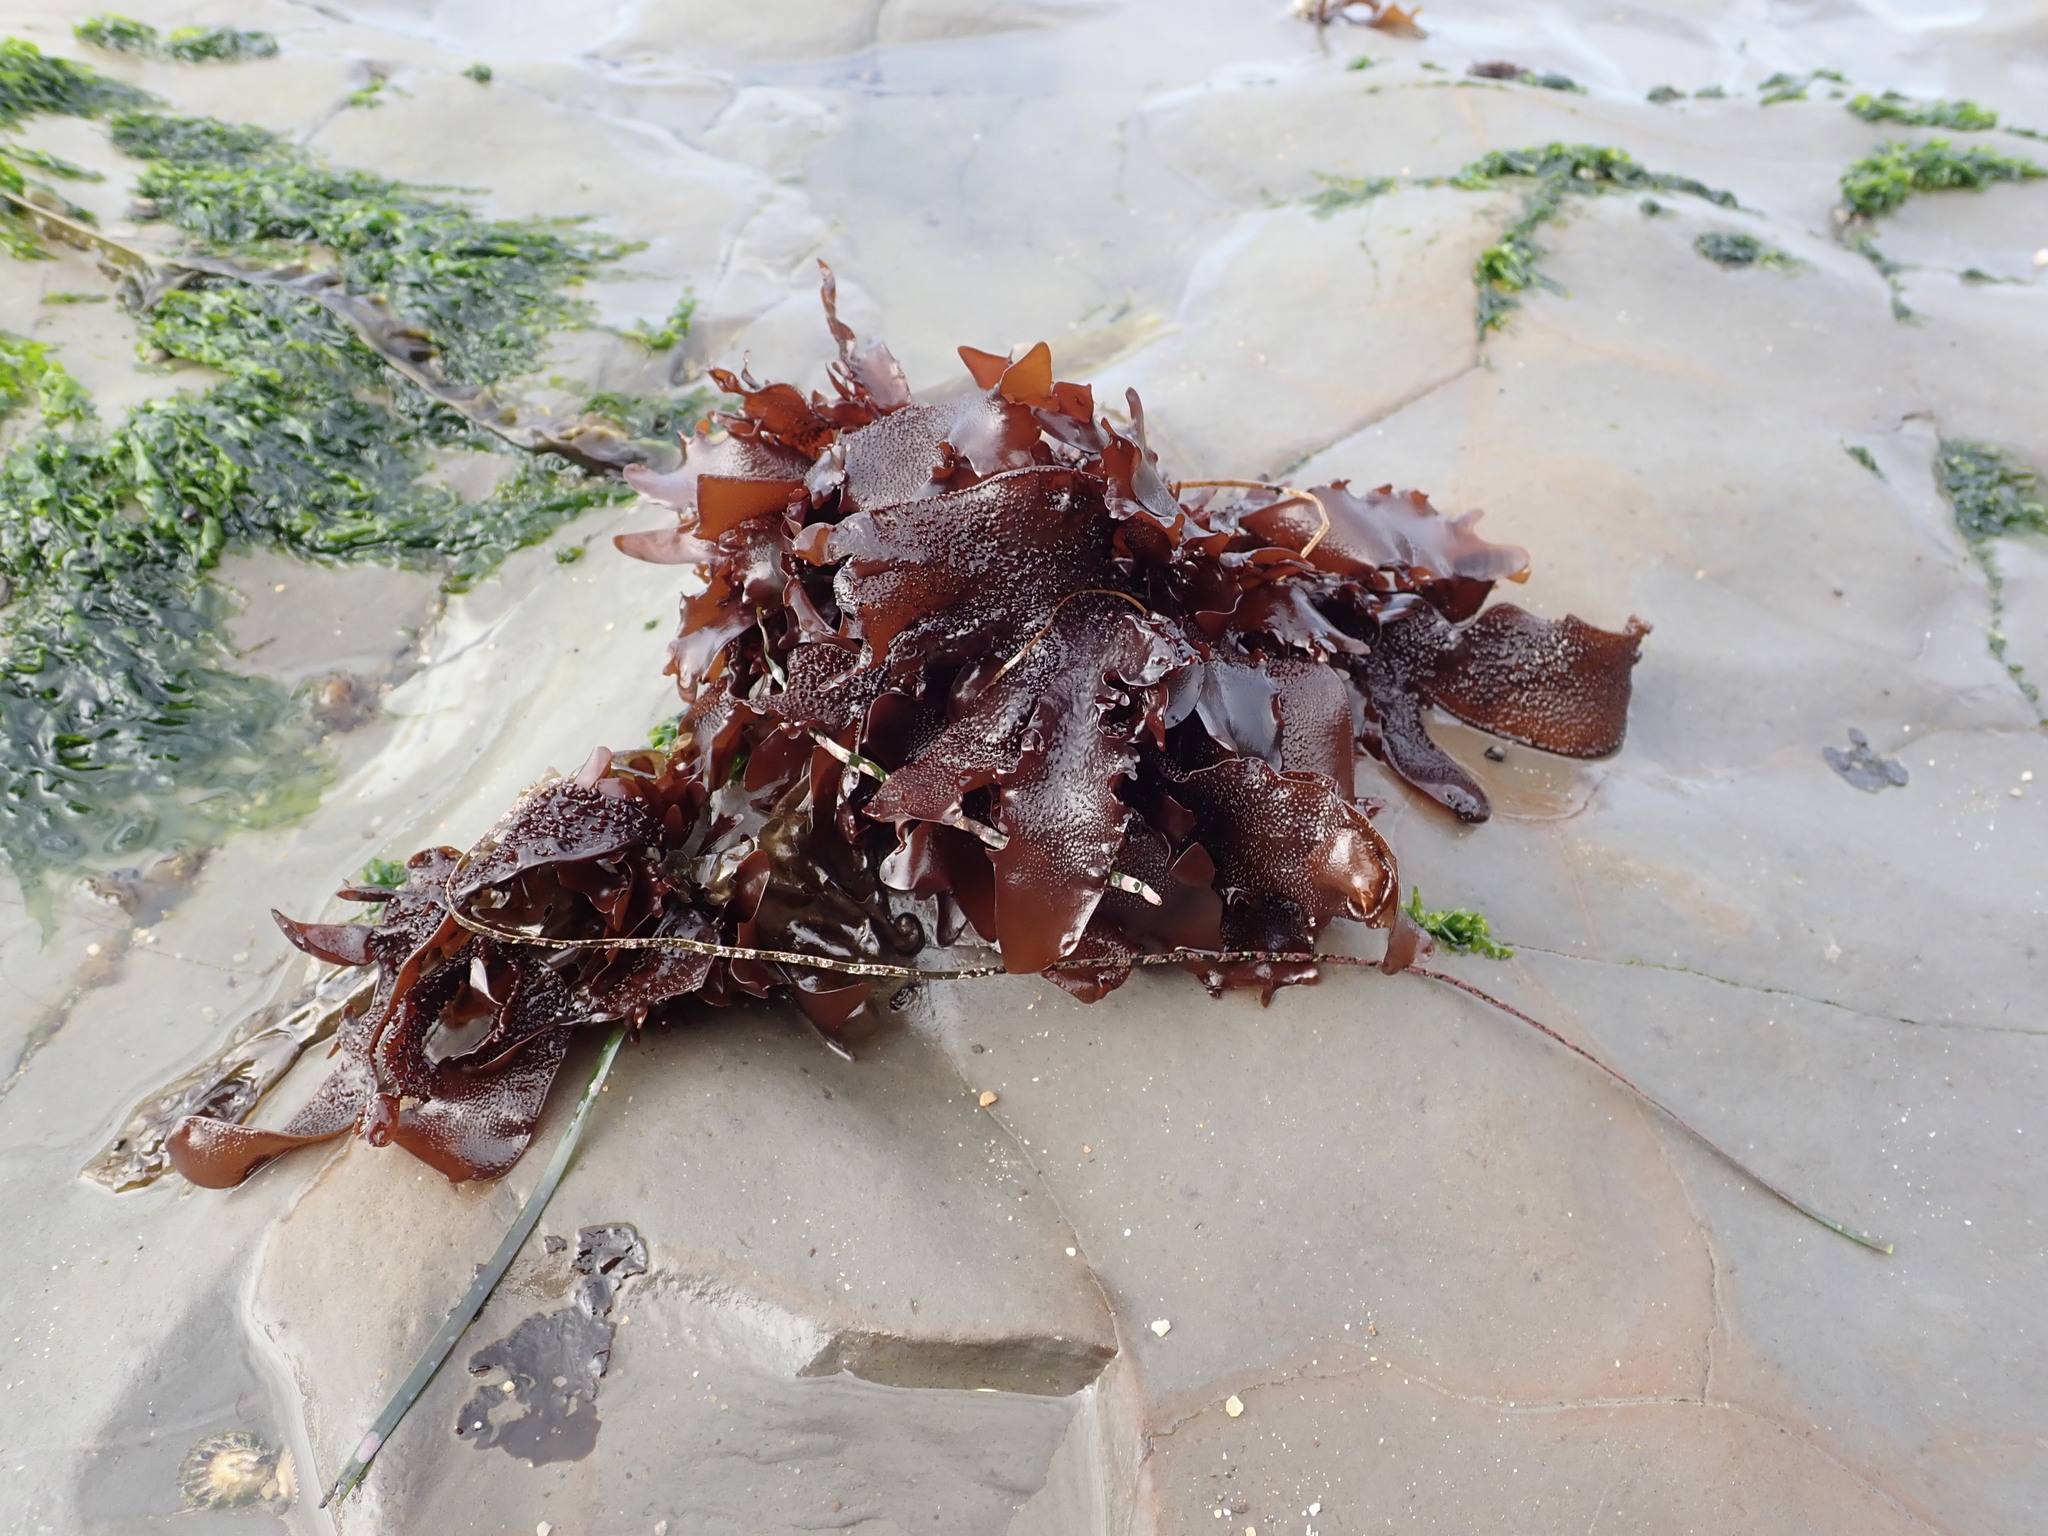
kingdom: Plantae
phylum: Rhodophyta
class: Florideophyceae
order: Gigartinales
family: Phyllophoraceae
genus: Mastocarpus
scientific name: Mastocarpus papillatus
